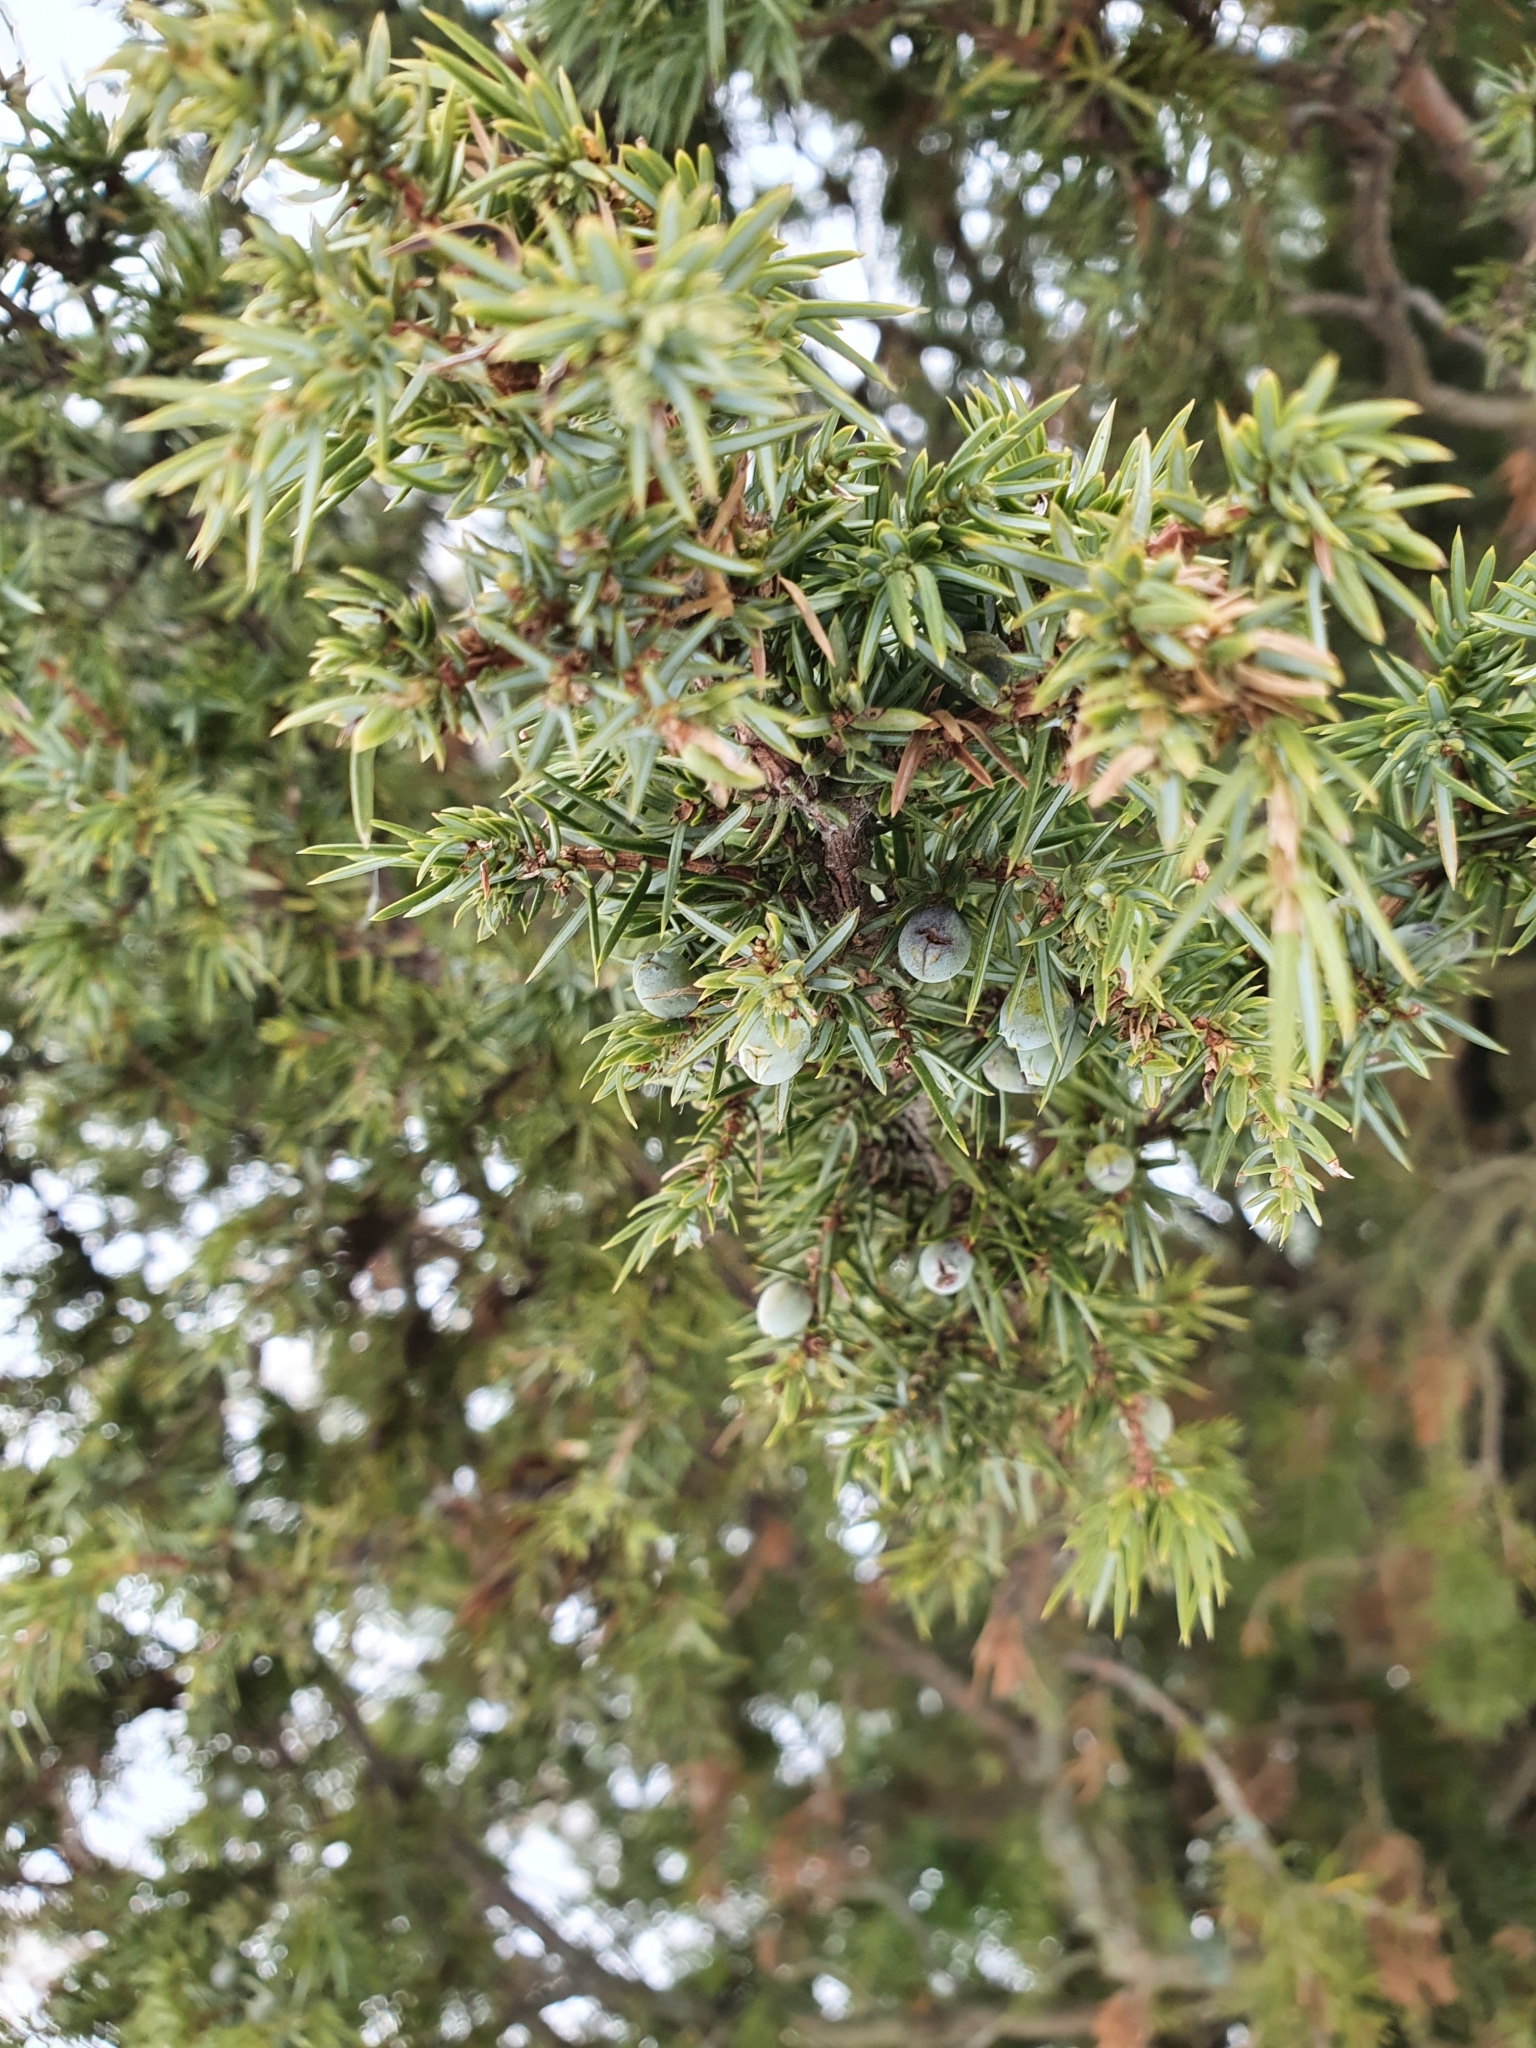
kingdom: Plantae
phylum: Tracheophyta
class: Pinopsida
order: Pinales
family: Cupressaceae
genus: Juniperus
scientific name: Juniperus communis
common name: Common juniper
